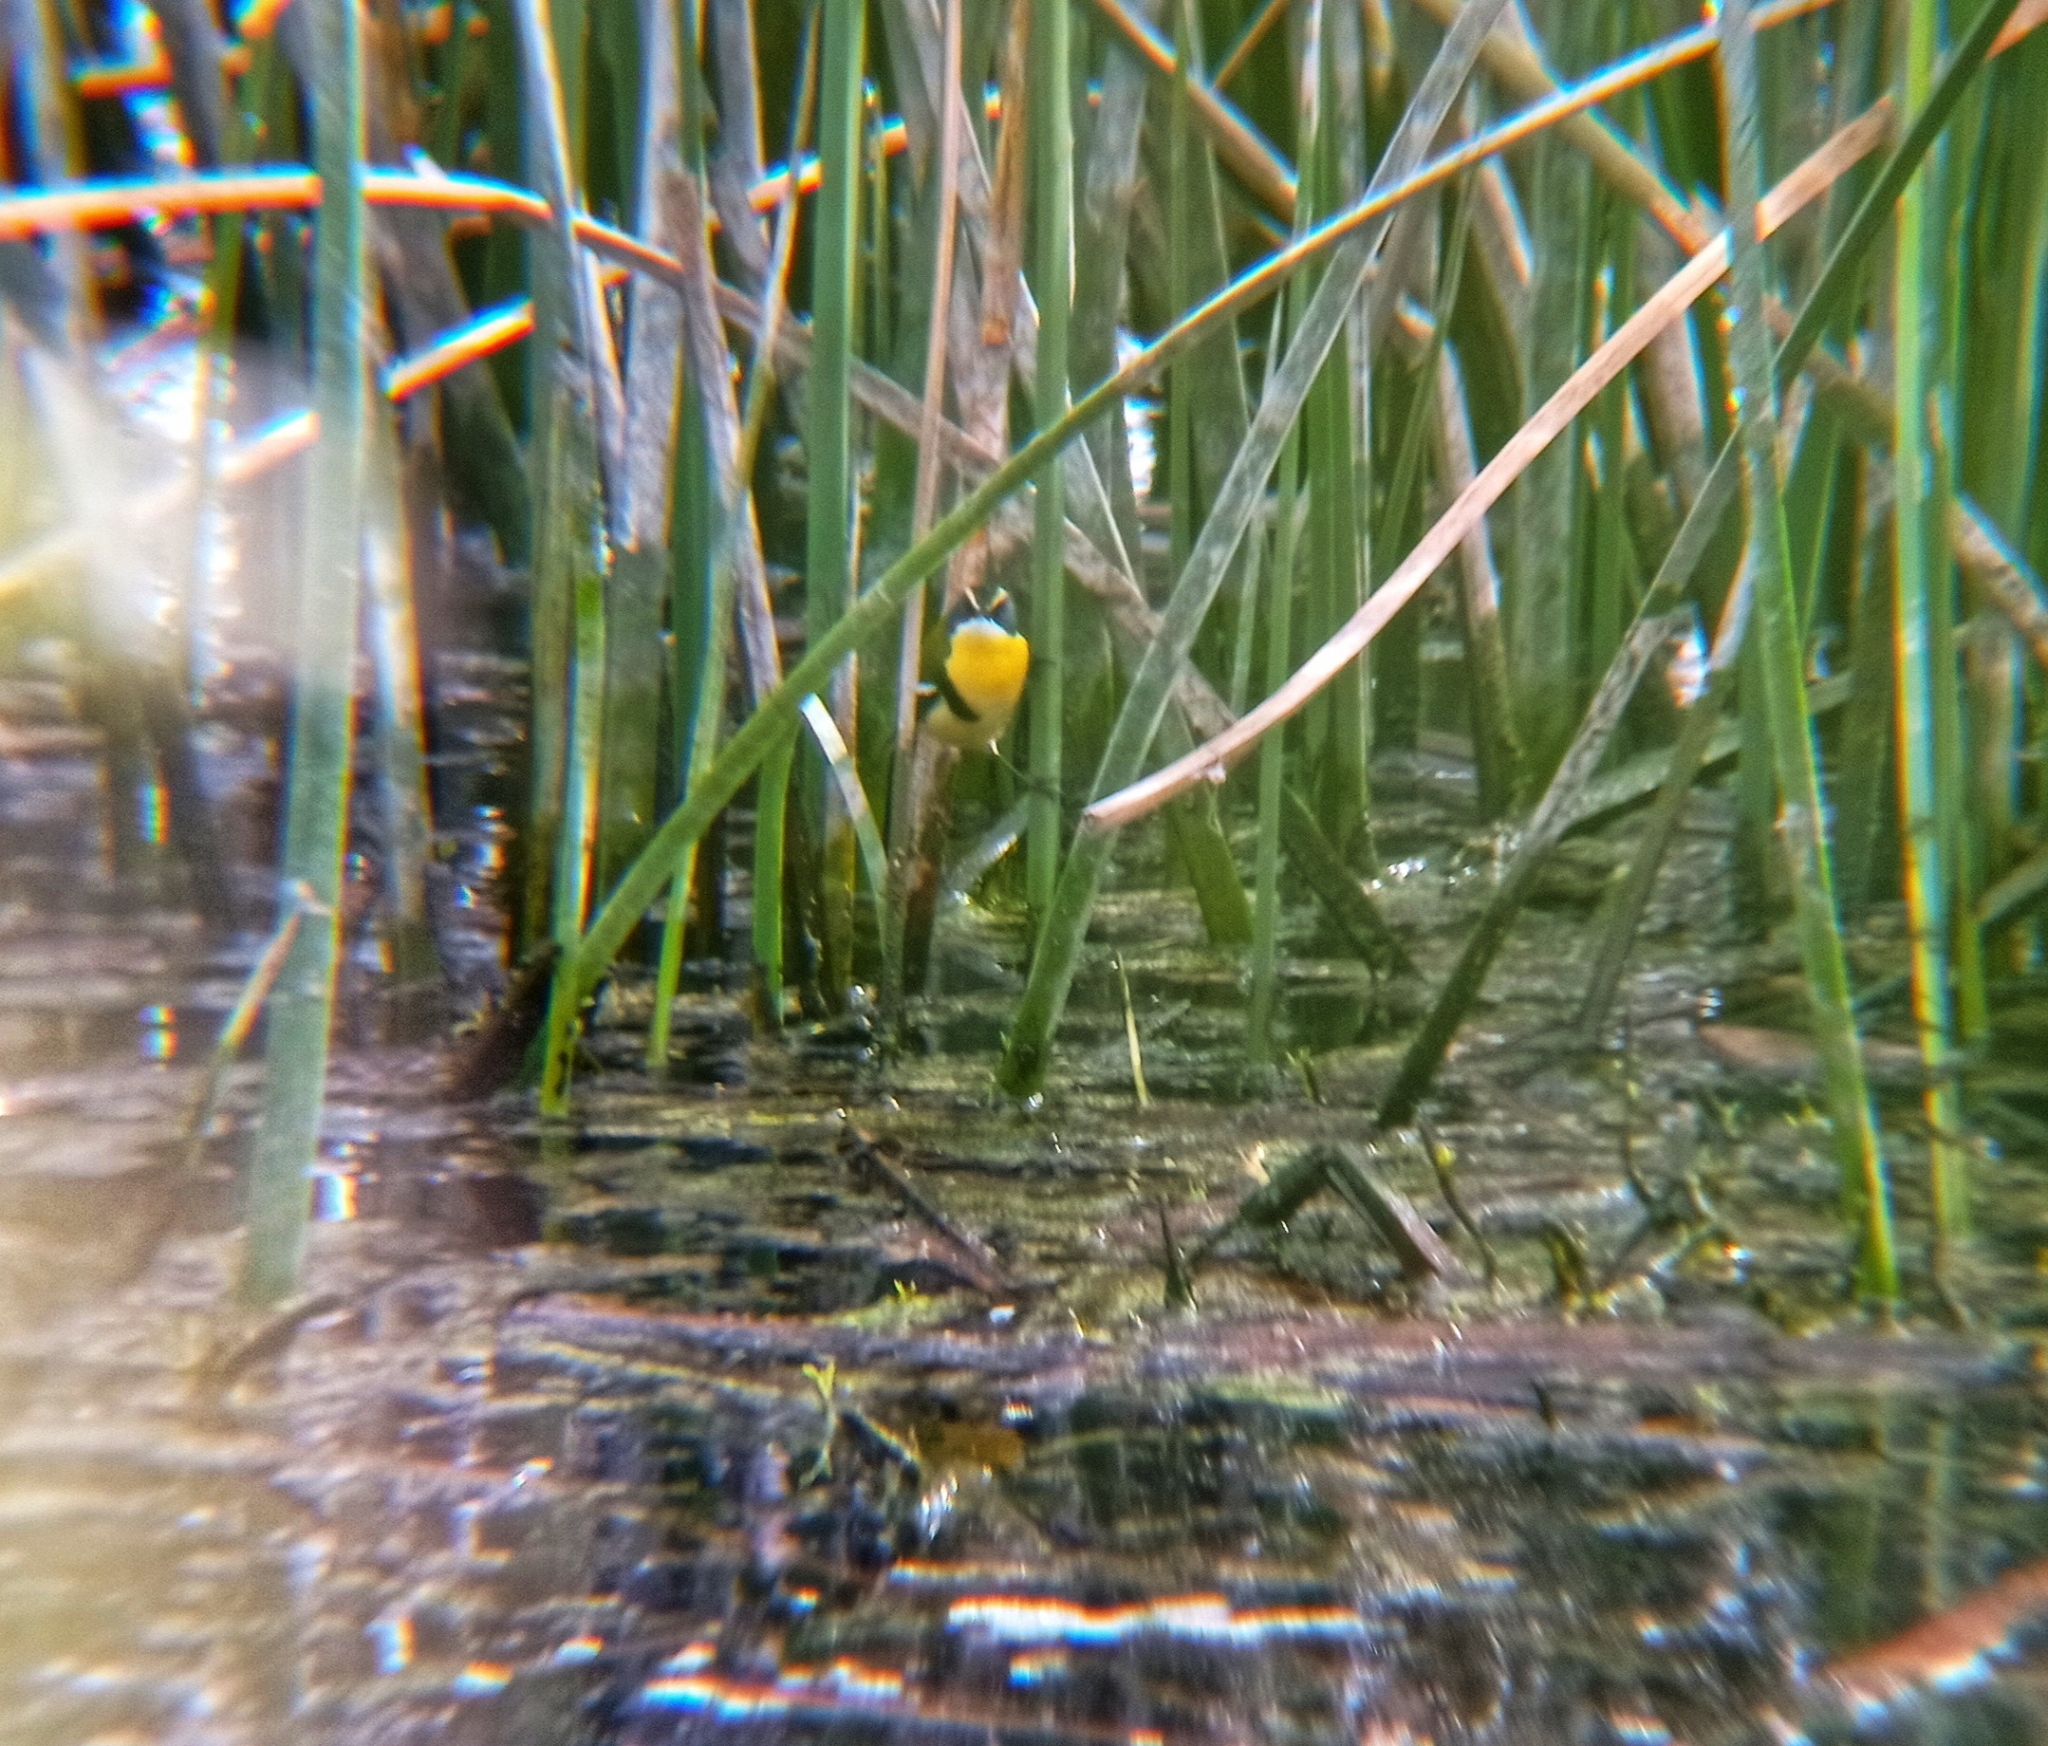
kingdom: Animalia
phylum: Chordata
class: Aves
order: Passeriformes
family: Tyrannidae
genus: Tachuris
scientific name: Tachuris rubrigastra
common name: Many-colored rush tyrant
